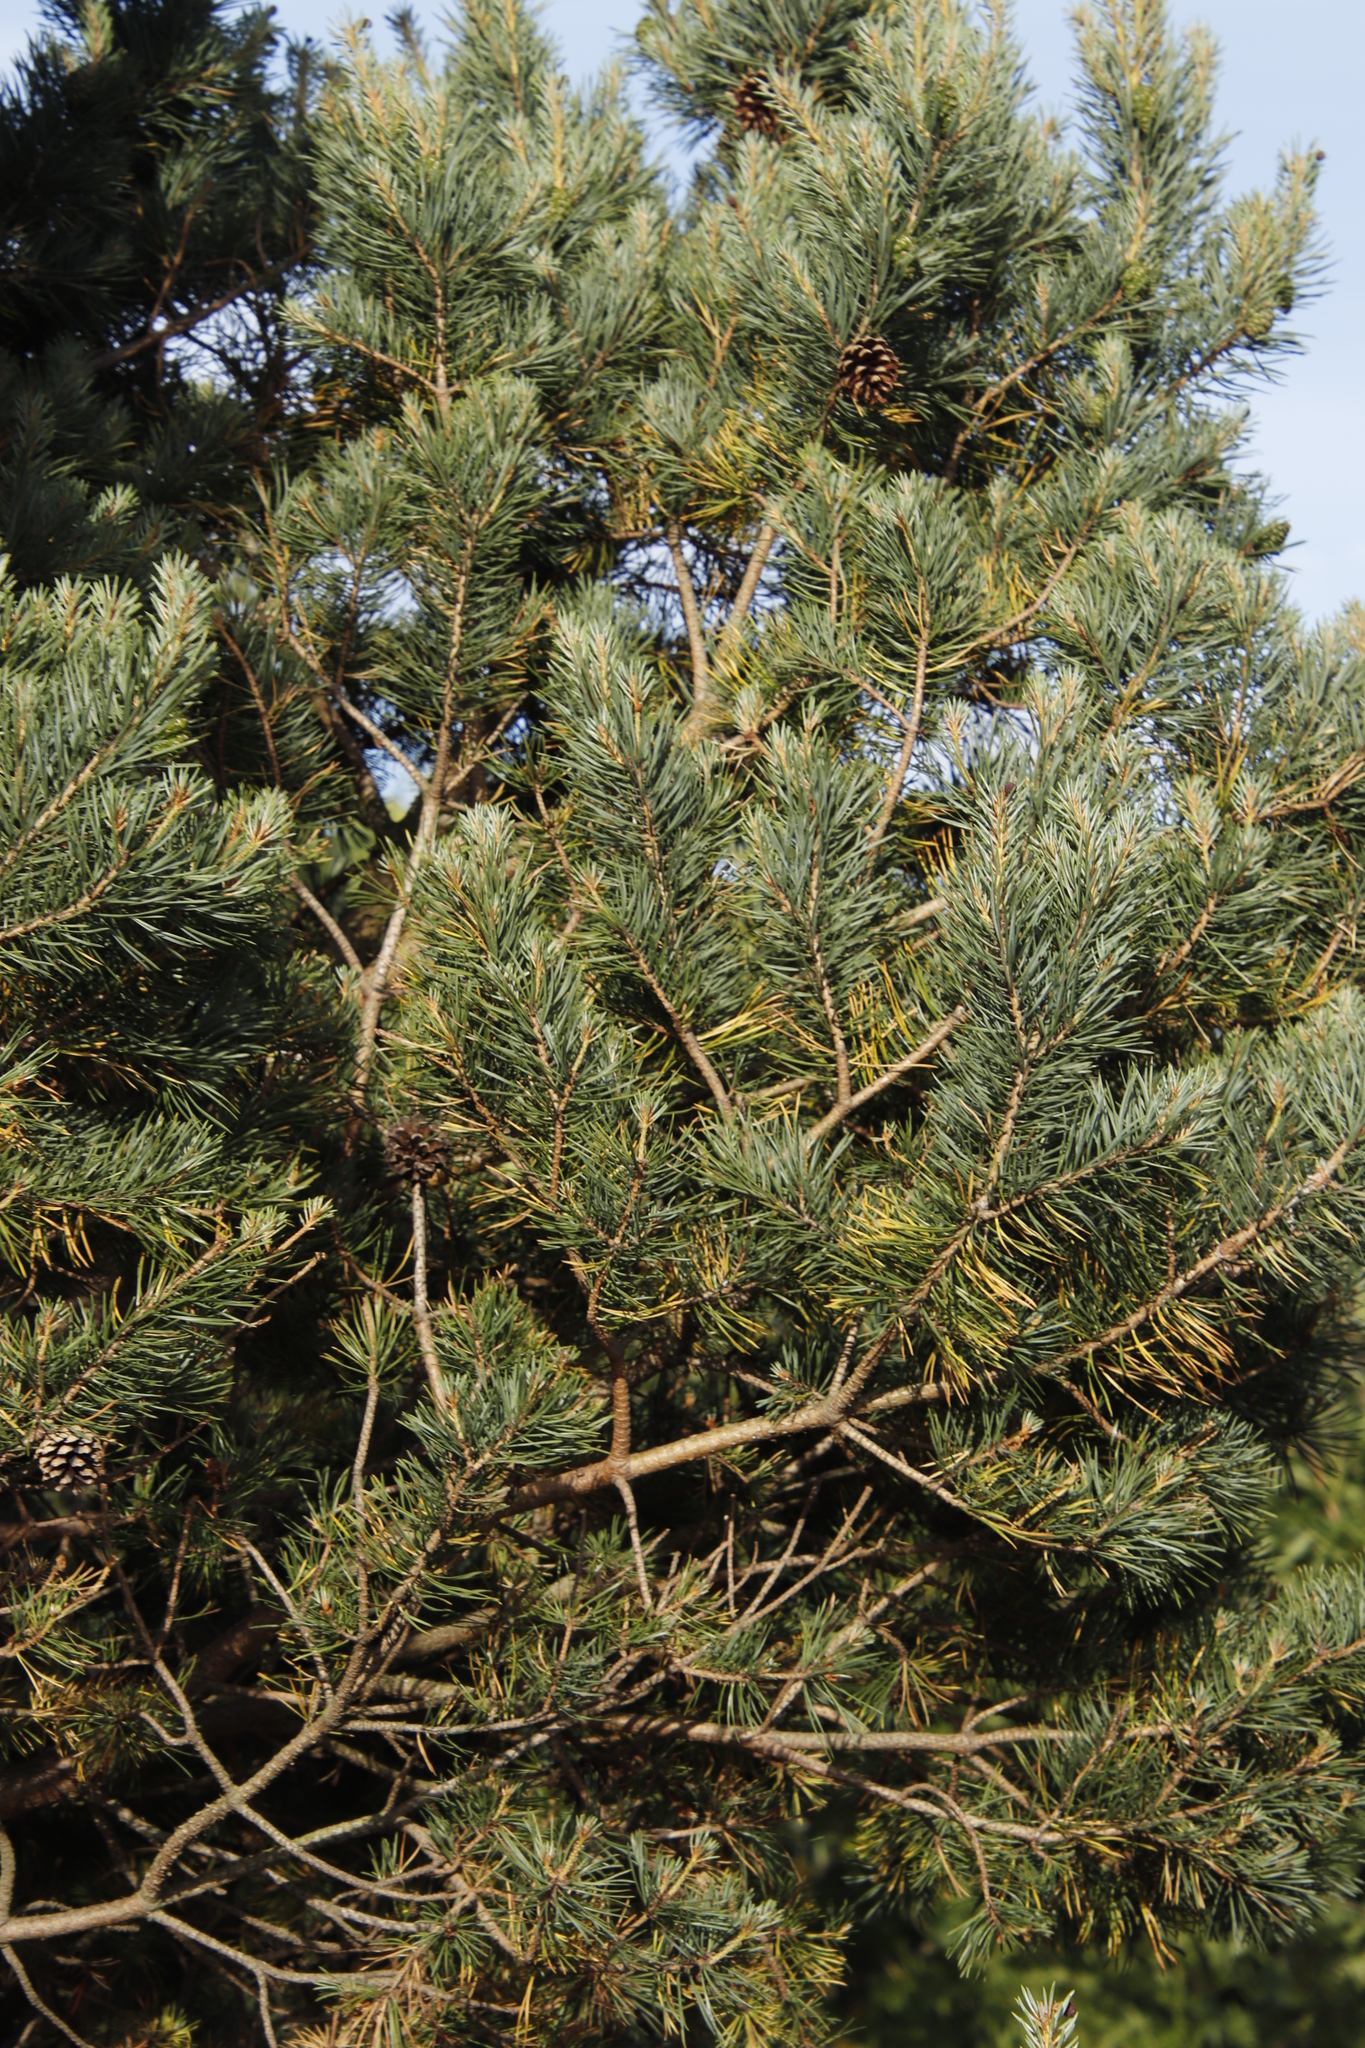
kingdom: Plantae
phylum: Tracheophyta
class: Pinopsida
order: Pinales
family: Pinaceae
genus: Pinus
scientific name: Pinus sylvestris
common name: Scots pine
